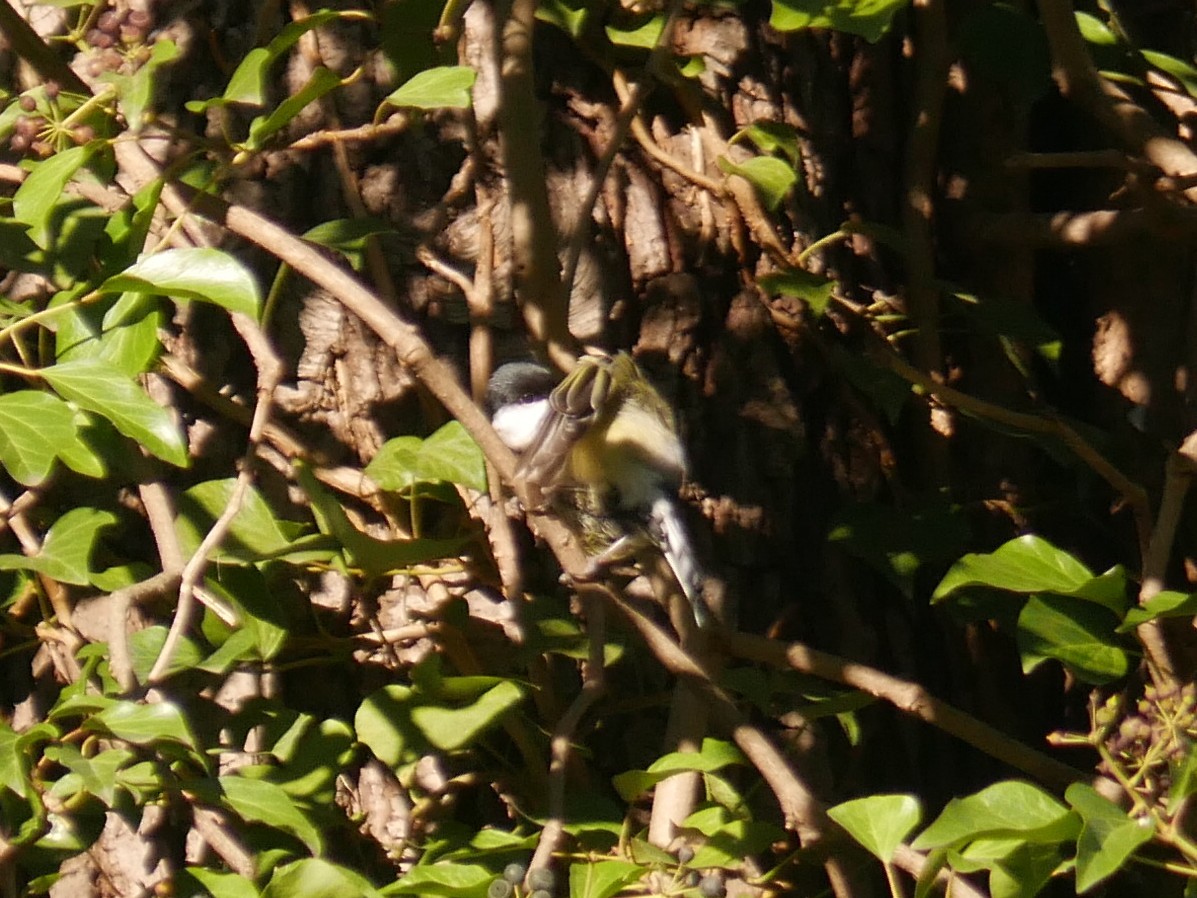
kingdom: Animalia
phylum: Chordata
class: Aves
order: Passeriformes
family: Paridae
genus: Parus
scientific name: Parus major
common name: Great tit
